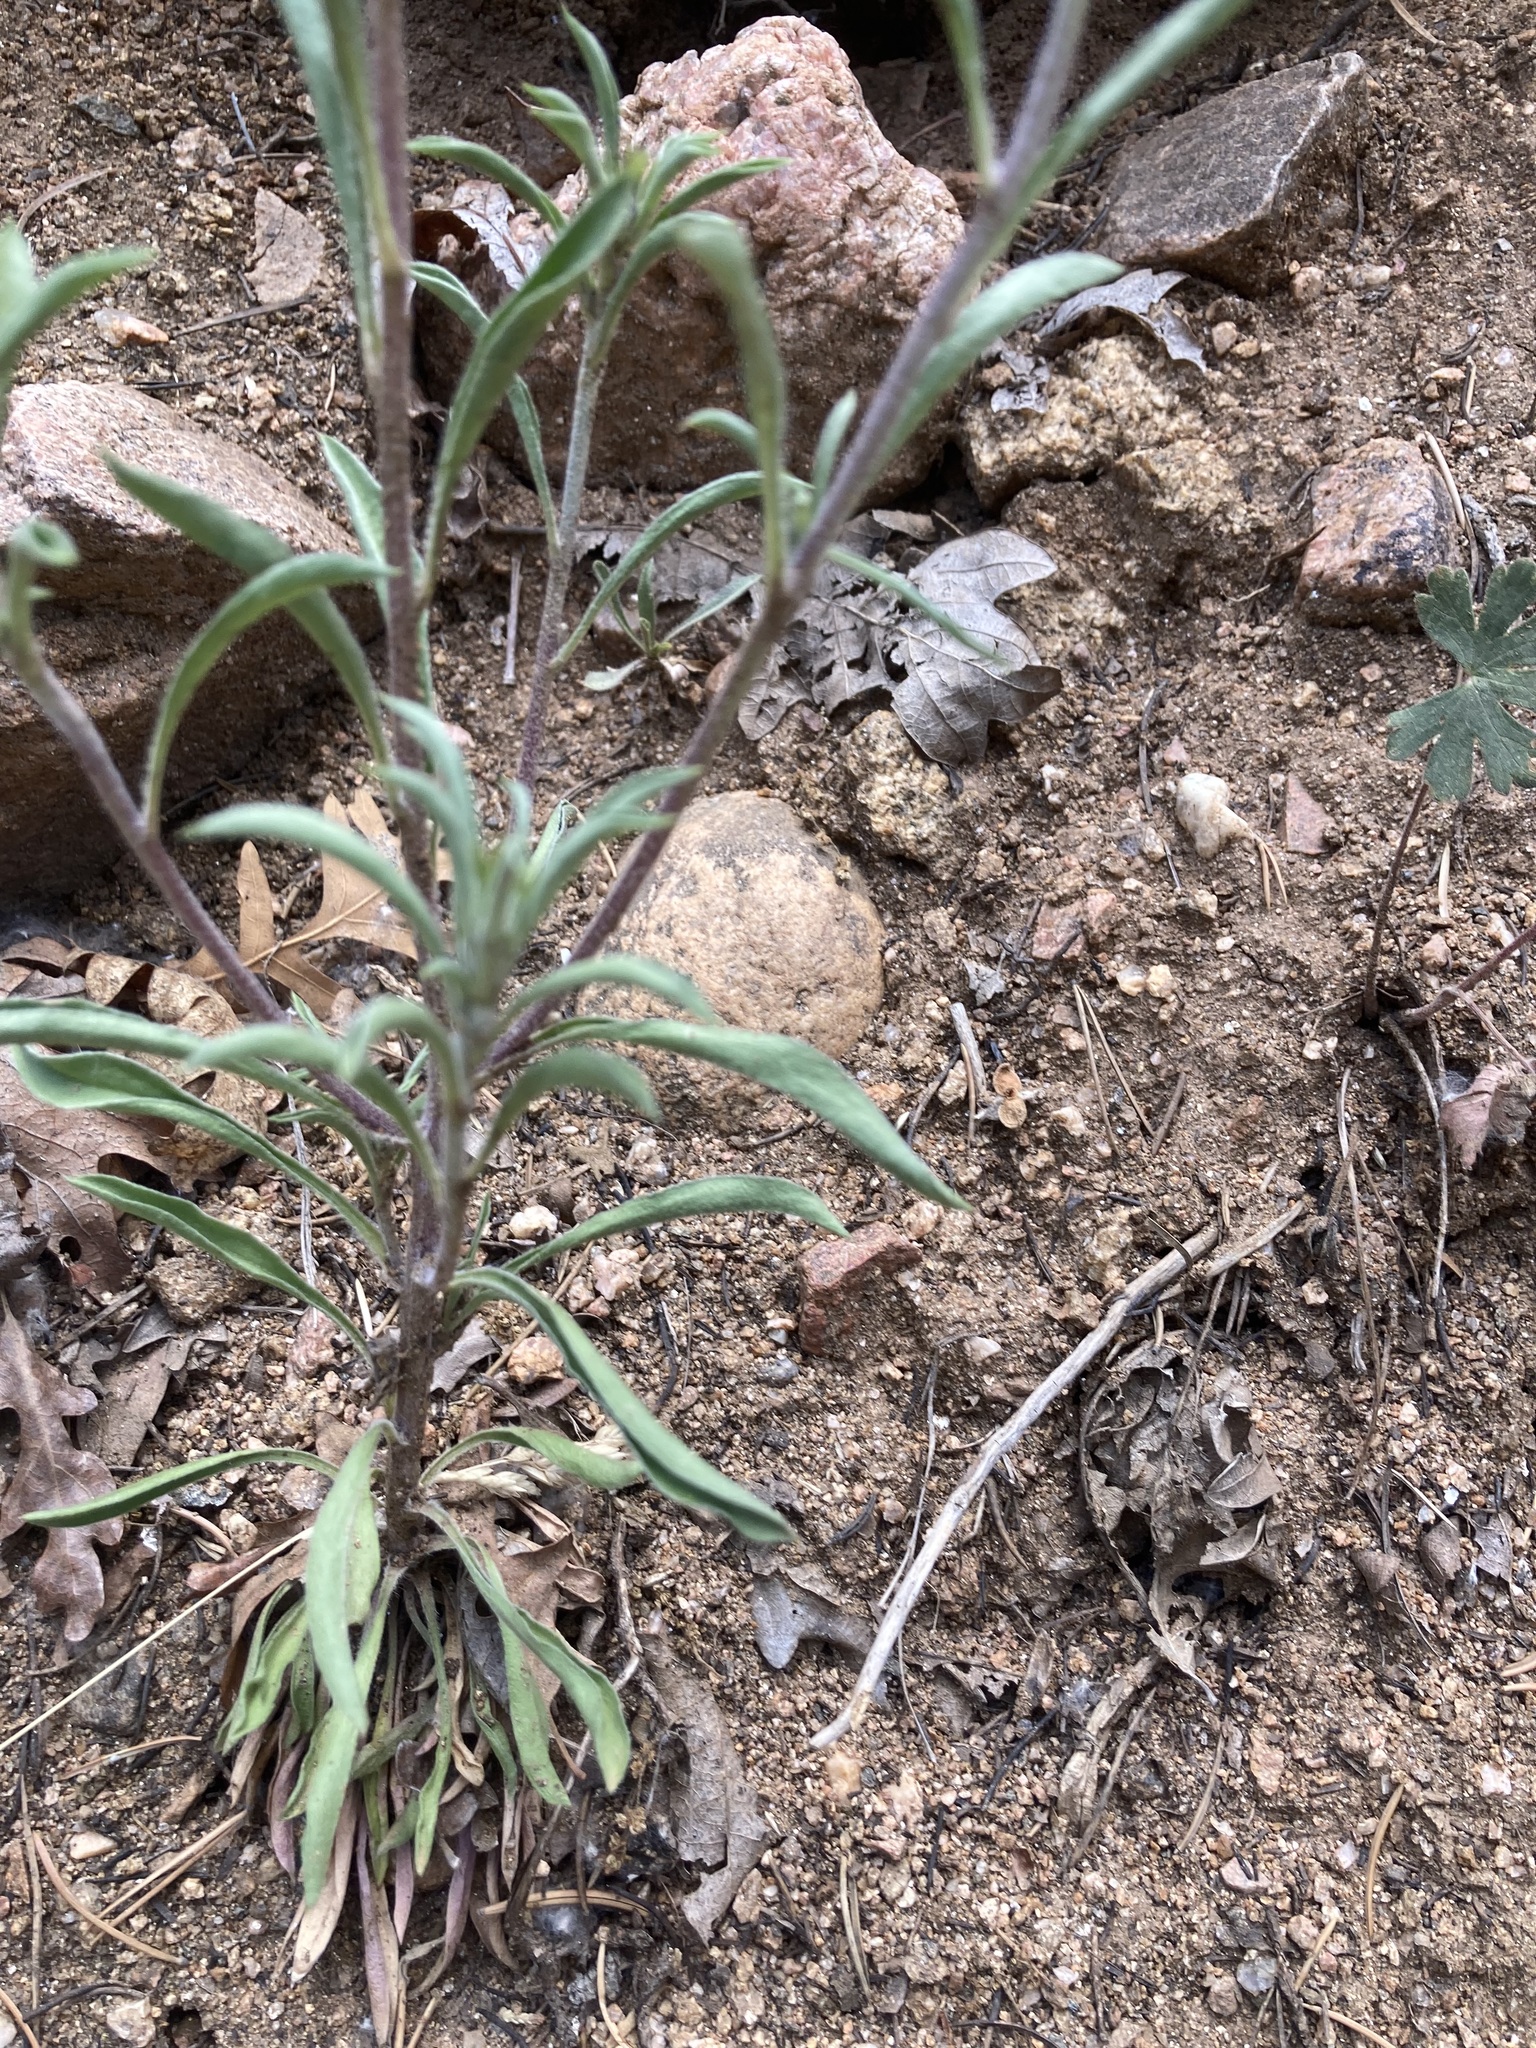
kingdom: Plantae
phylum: Tracheophyta
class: Magnoliopsida
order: Asterales
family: Asteraceae
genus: Townsendia
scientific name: Townsendia eximia
